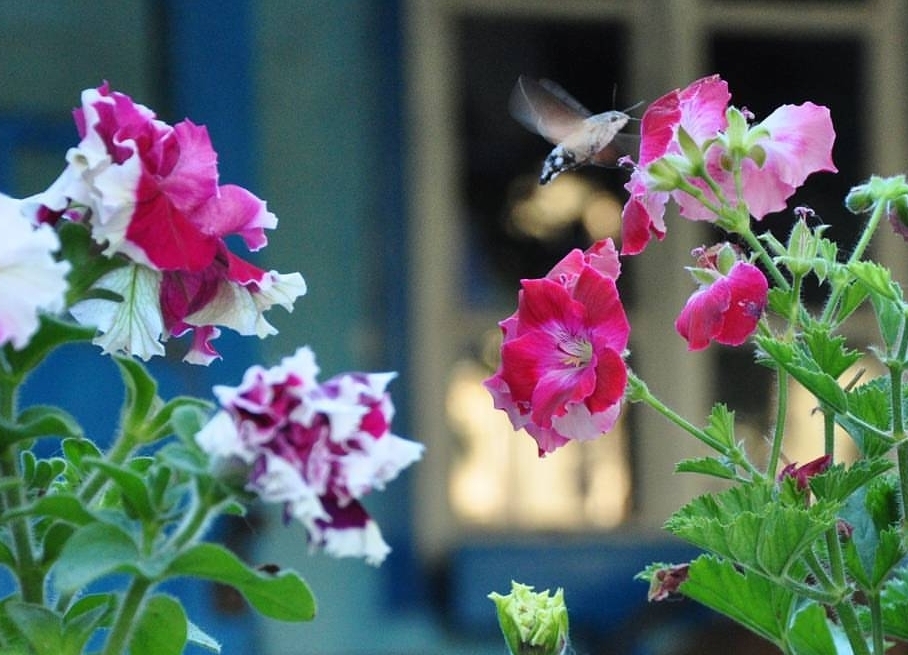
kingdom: Animalia
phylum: Arthropoda
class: Insecta
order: Lepidoptera
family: Sphingidae
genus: Macroglossum
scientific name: Macroglossum stellatarum
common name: Humming-bird hawk-moth
